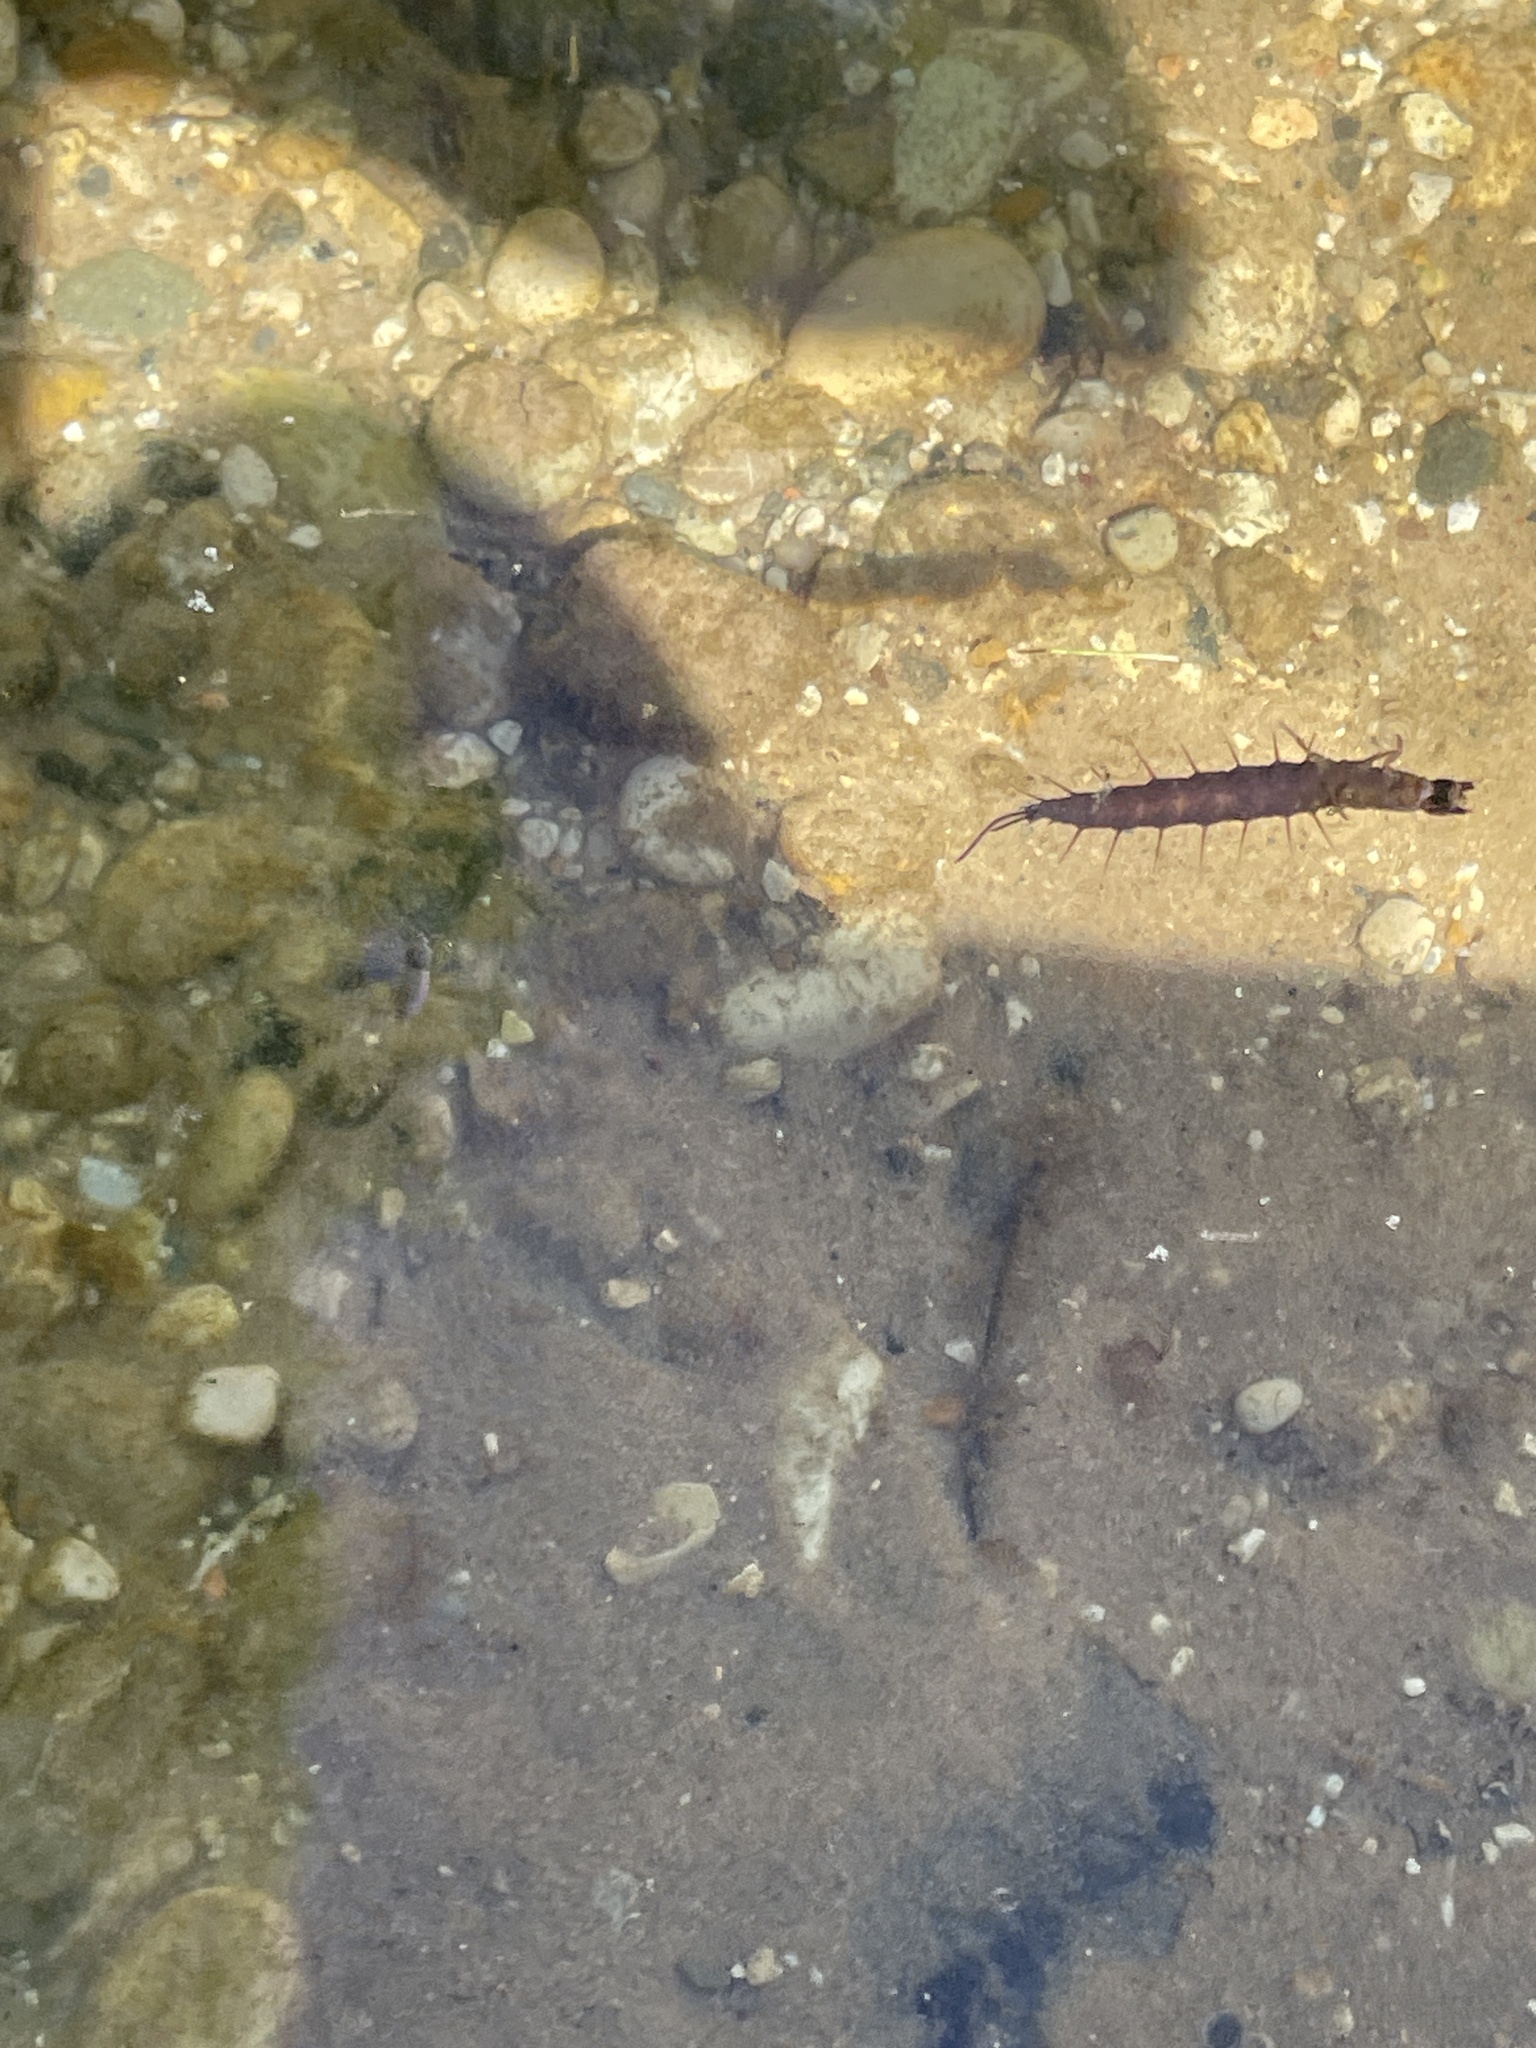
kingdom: Animalia
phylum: Arthropoda
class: Insecta
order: Megaloptera
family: Corydalidae
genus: Chauliodes
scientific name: Chauliodes
